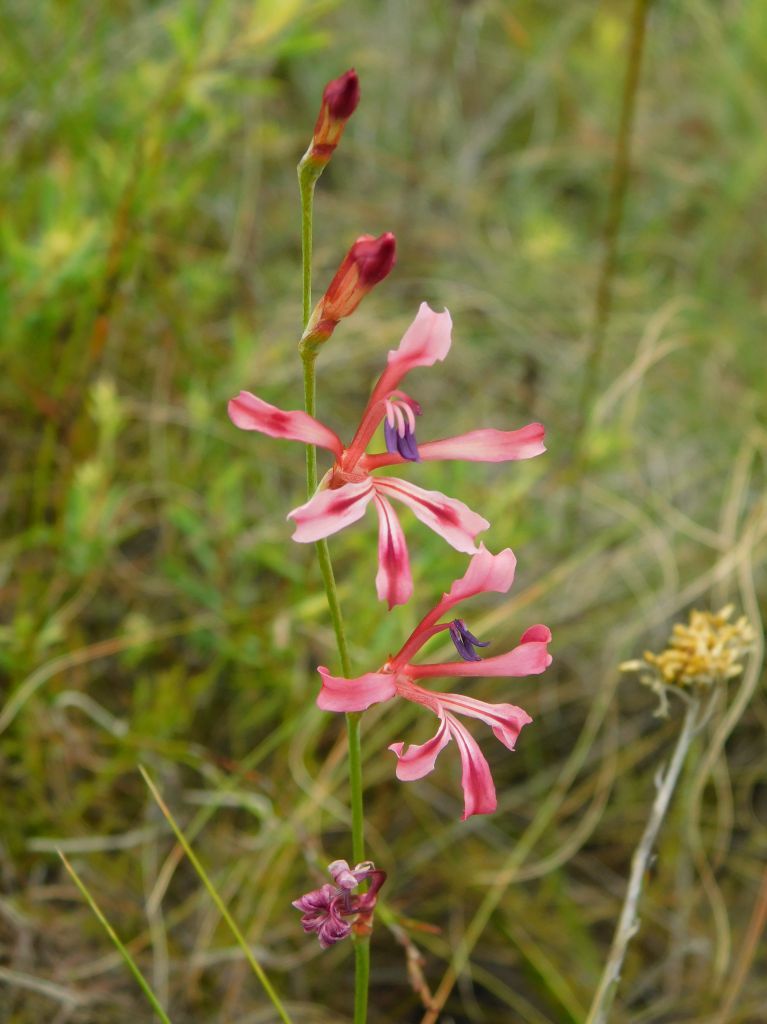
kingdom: Plantae
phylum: Tracheophyta
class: Liliopsida
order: Asparagales
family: Iridaceae
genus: Tritoniopsis
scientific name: Tritoniopsis ramosa
